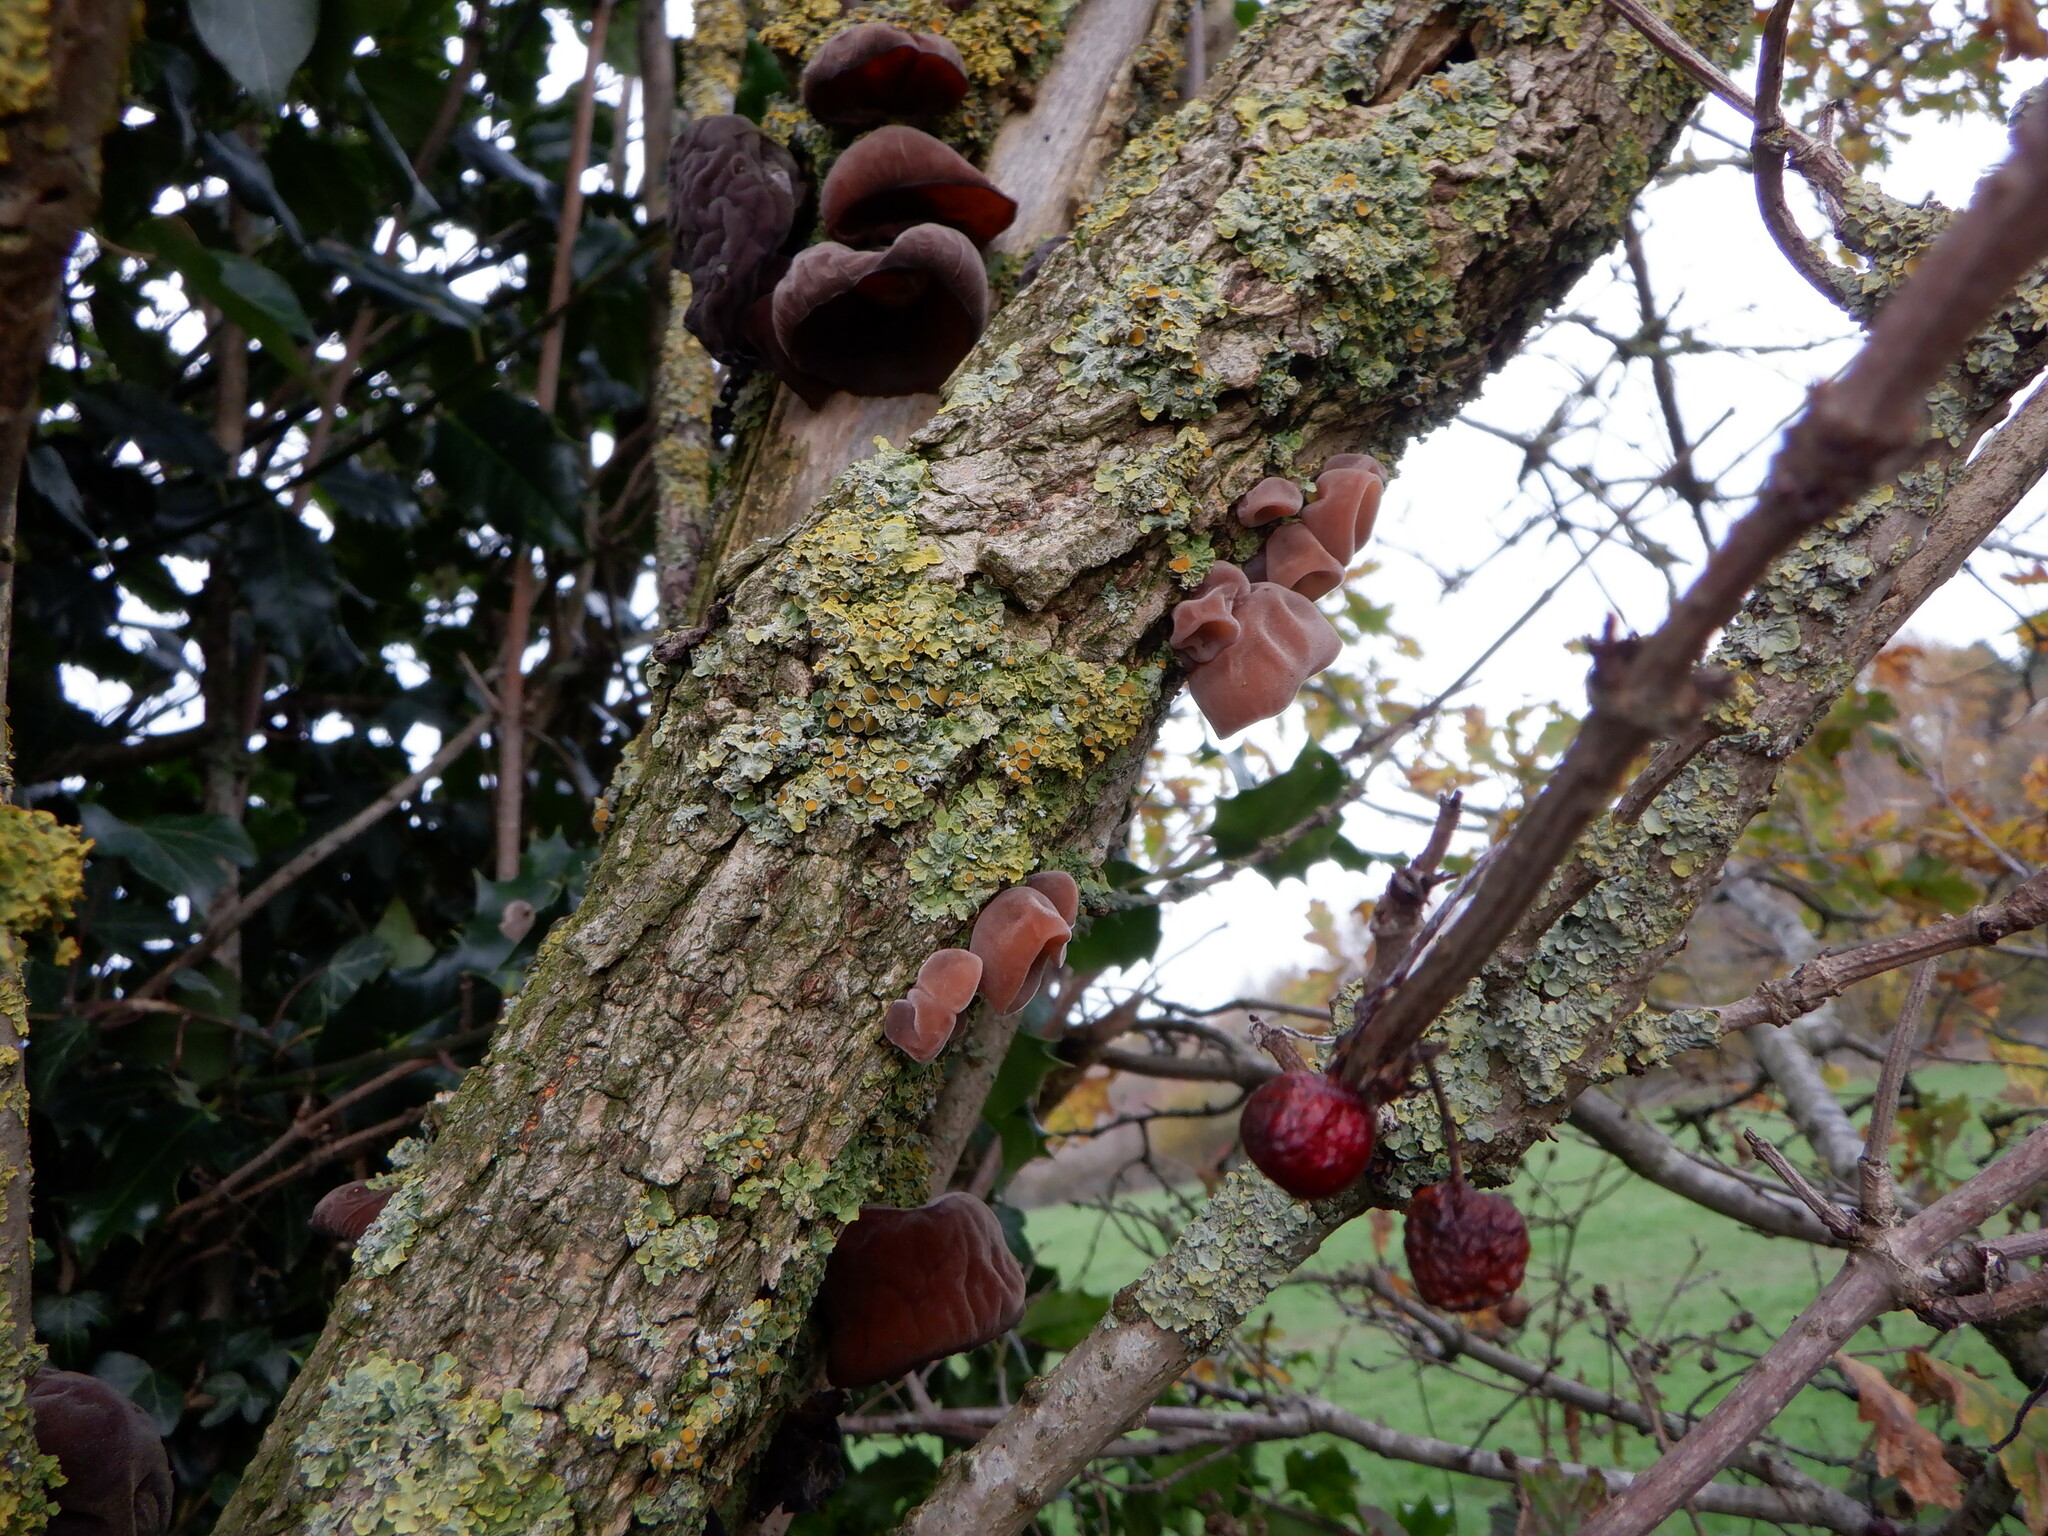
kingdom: Fungi
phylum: Basidiomycota
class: Agaricomycetes
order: Auriculariales
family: Auriculariaceae
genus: Auricularia
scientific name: Auricularia auricula-judae
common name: Jelly ear
